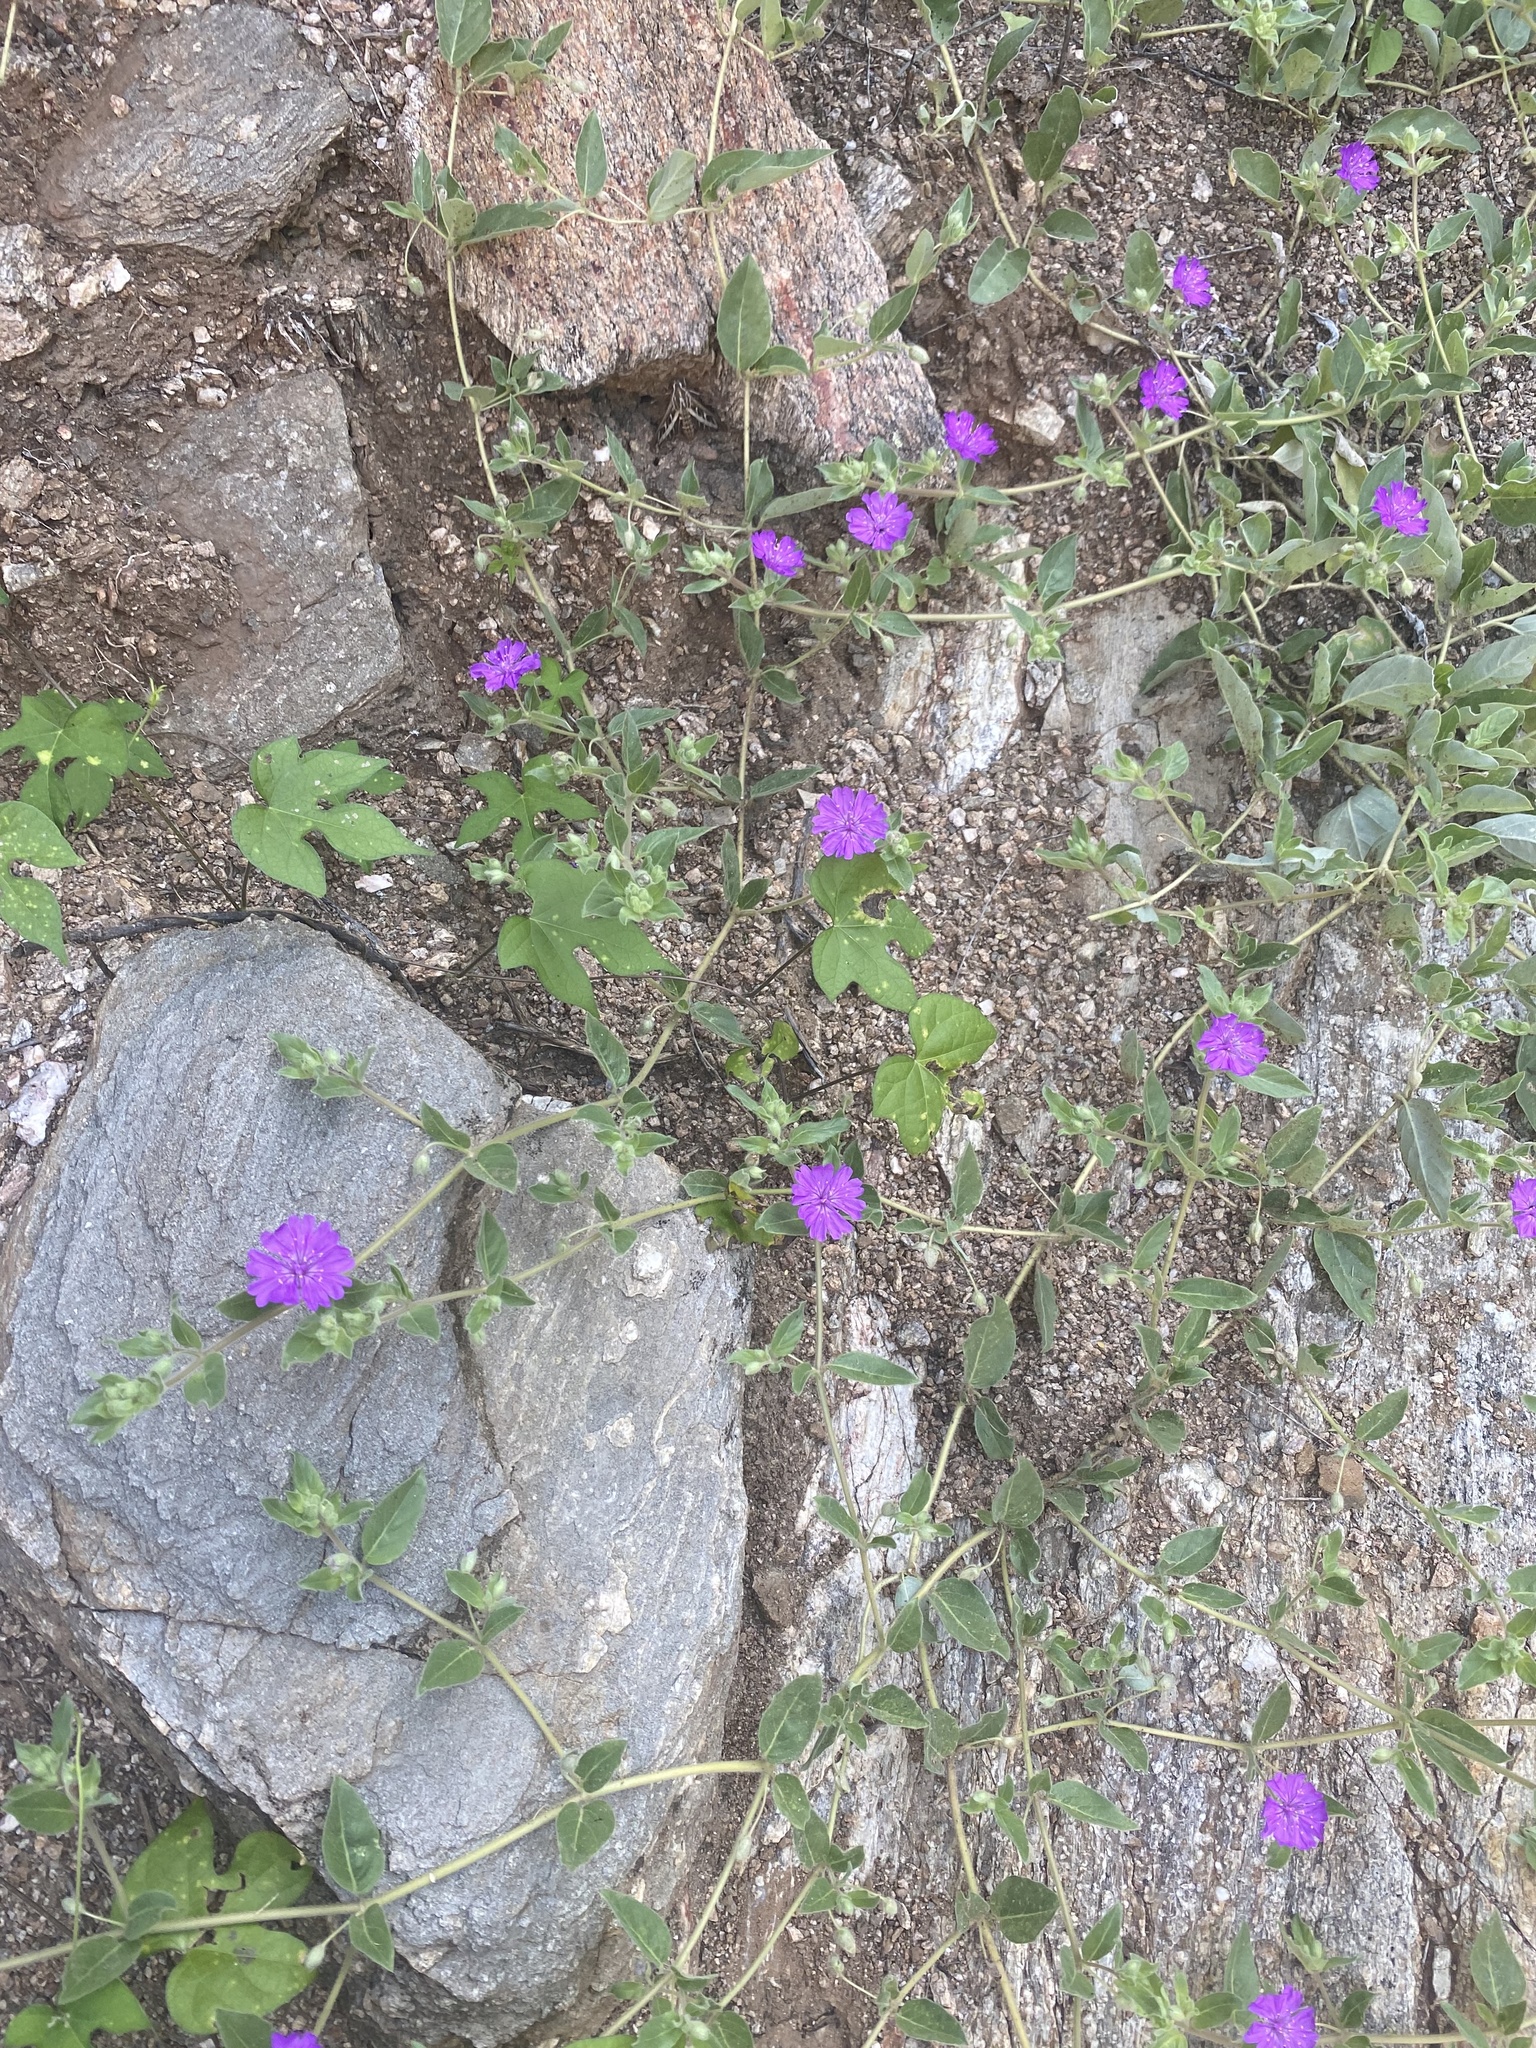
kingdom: Plantae
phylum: Tracheophyta
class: Magnoliopsida
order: Caryophyllales
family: Nyctaginaceae
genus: Allionia
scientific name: Allionia incarnata
